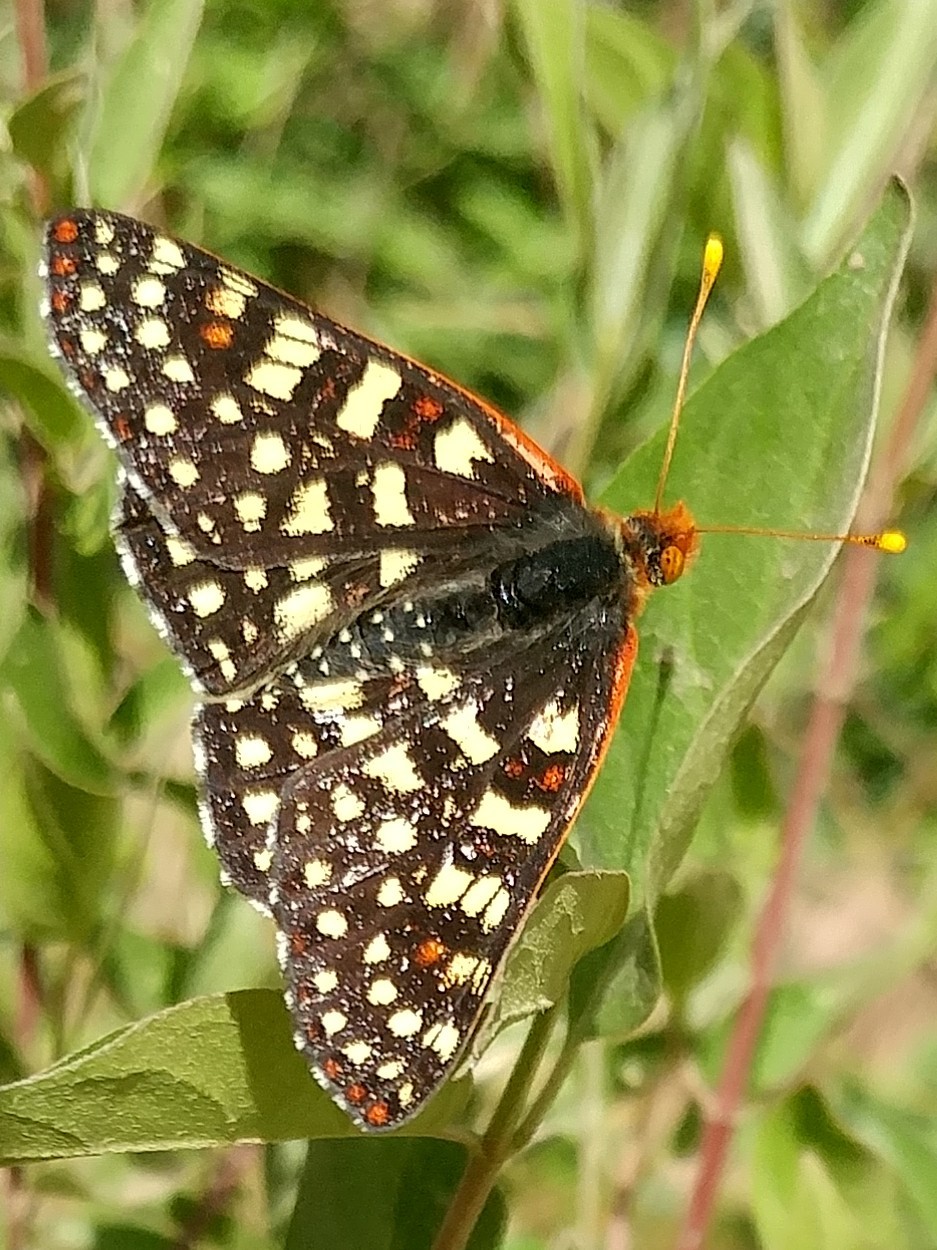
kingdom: Animalia
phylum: Arthropoda
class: Insecta
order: Lepidoptera
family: Nymphalidae
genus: Occidryas
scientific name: Occidryas chalcedona
